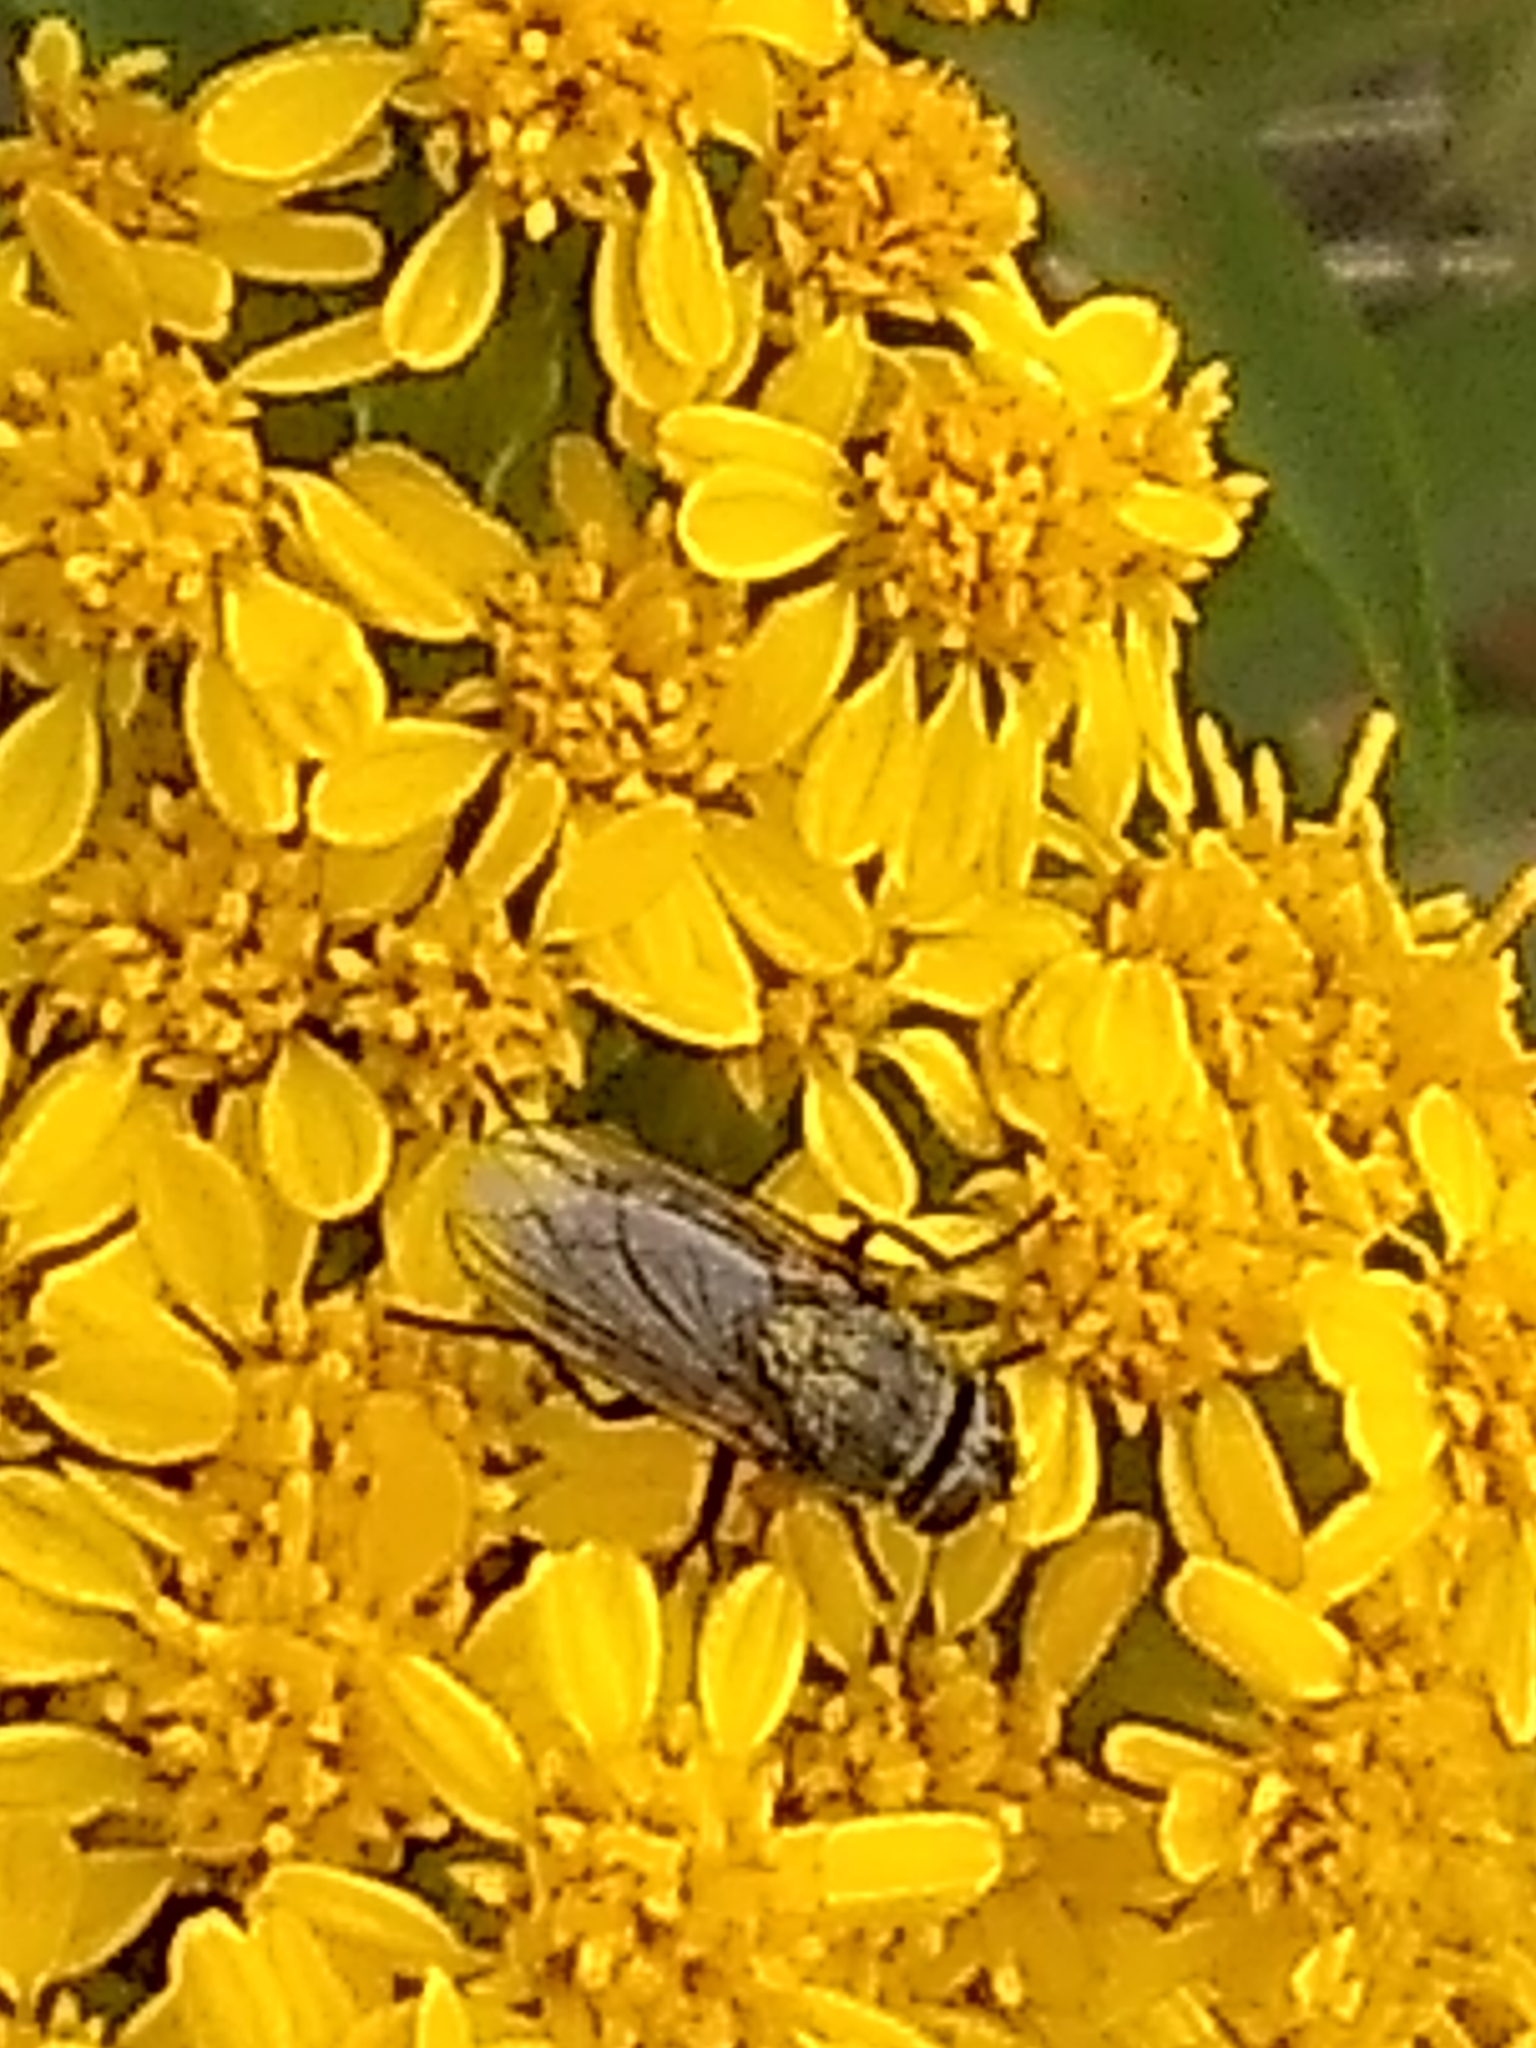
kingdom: Animalia
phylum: Arthropoda
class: Insecta
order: Diptera
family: Polleniidae
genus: Pollenia
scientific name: Pollenia
